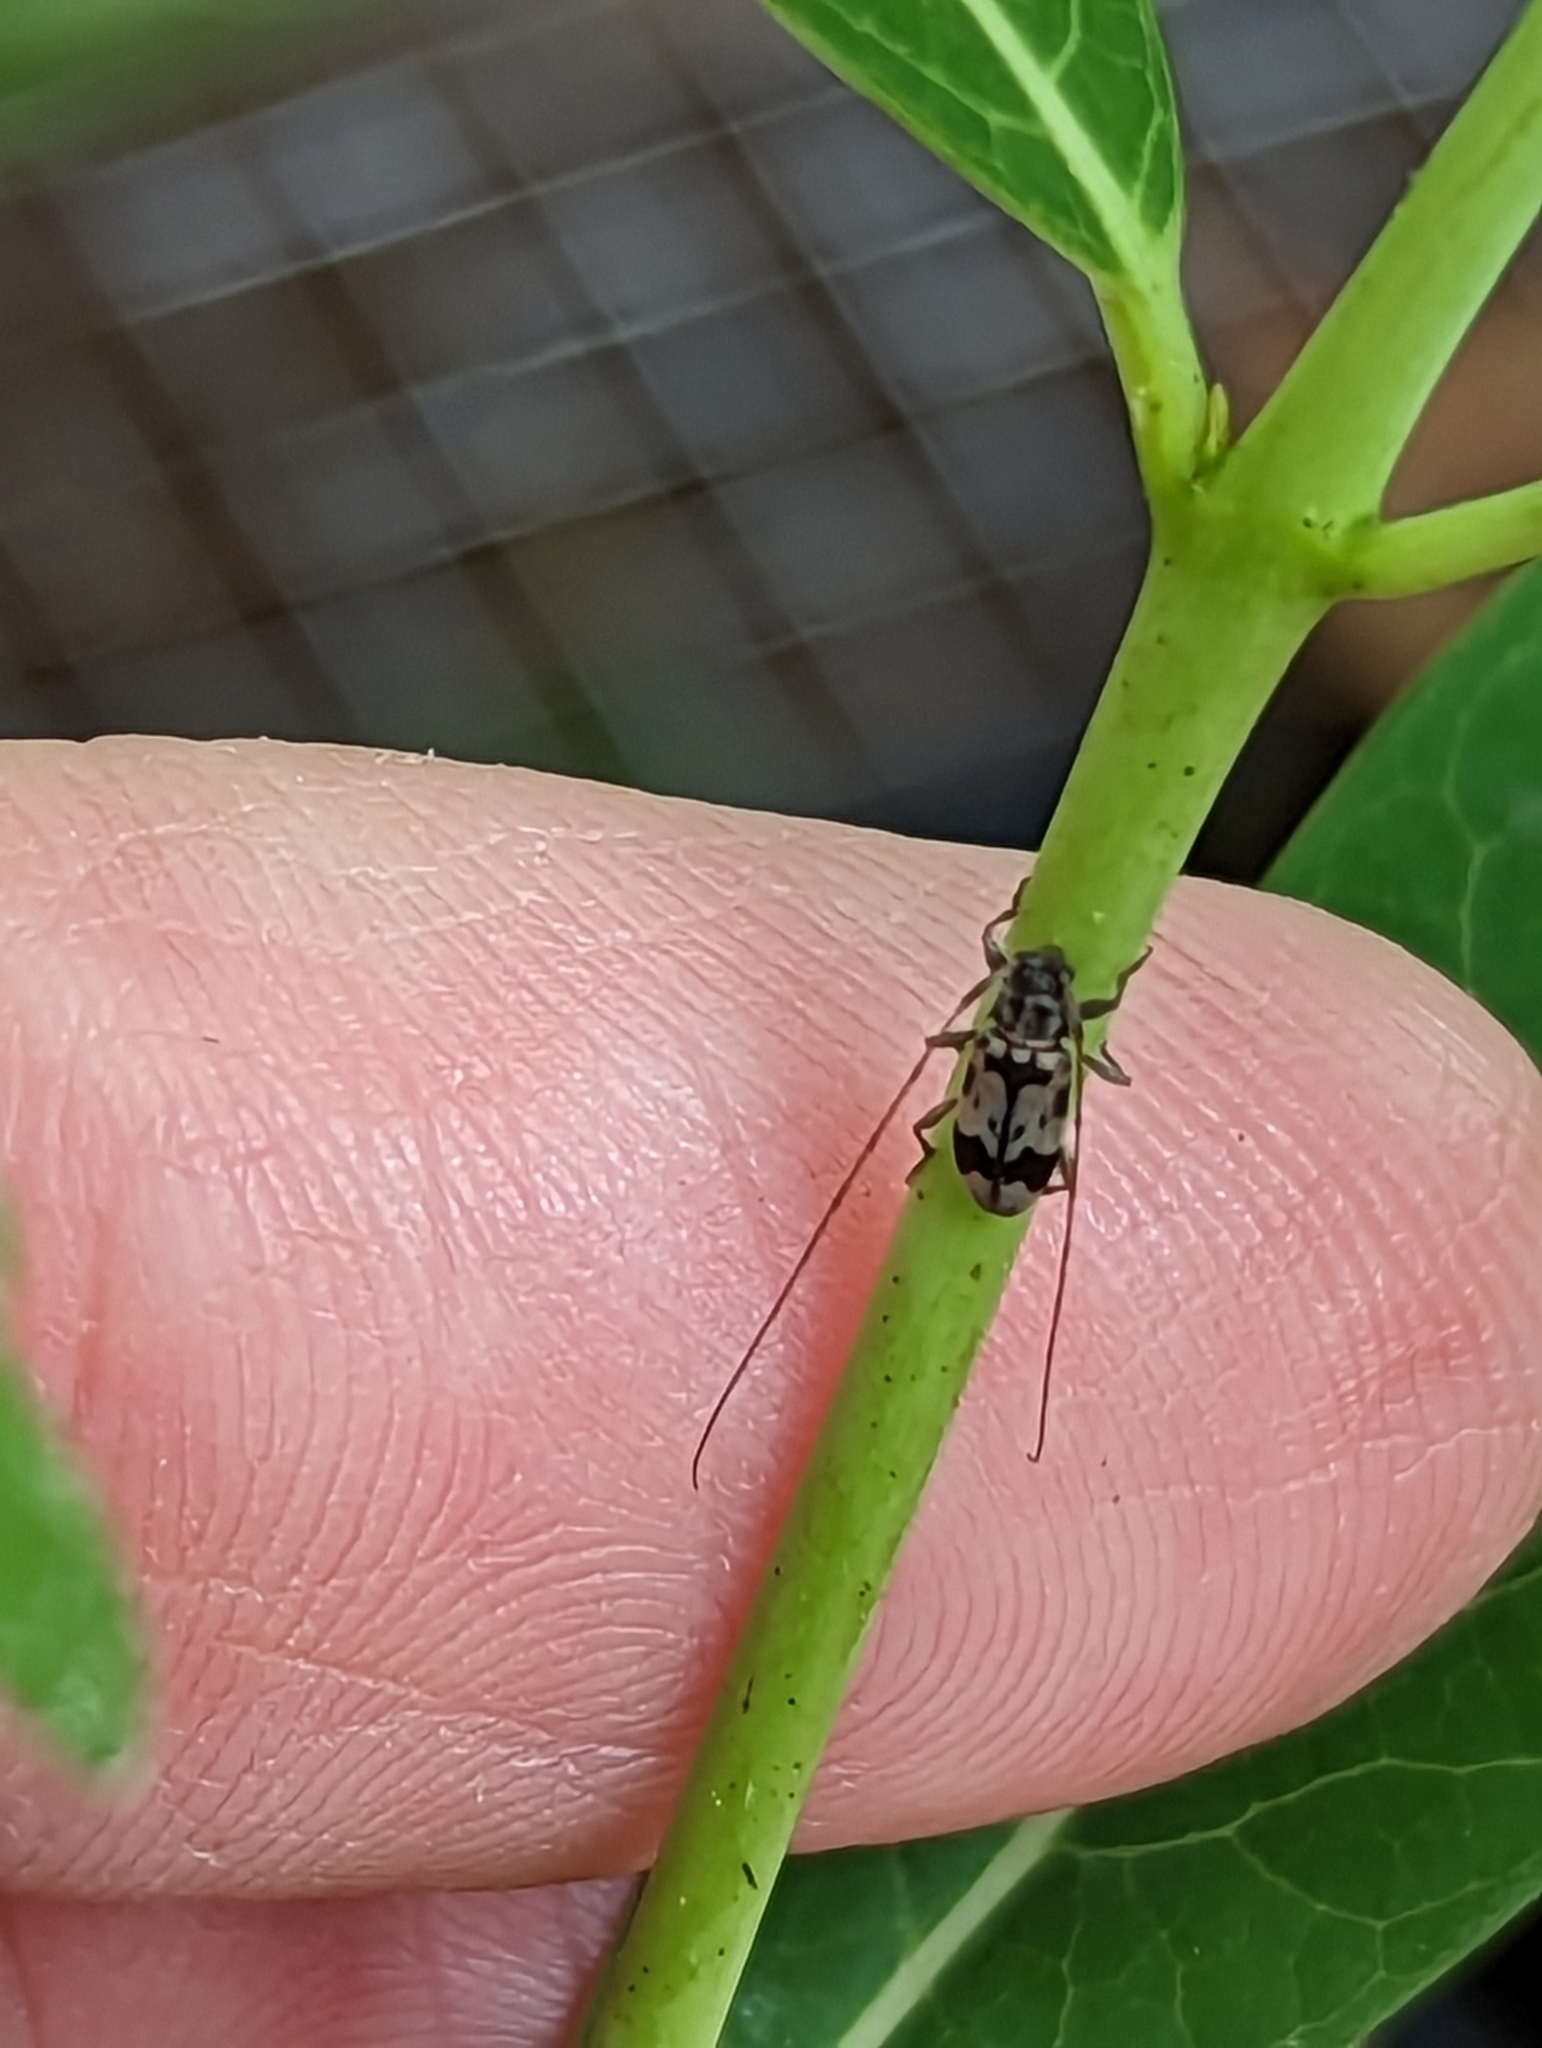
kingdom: Animalia
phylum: Arthropoda
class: Insecta
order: Coleoptera
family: Cerambycidae
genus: Urgleptes
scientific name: Urgleptes querci
